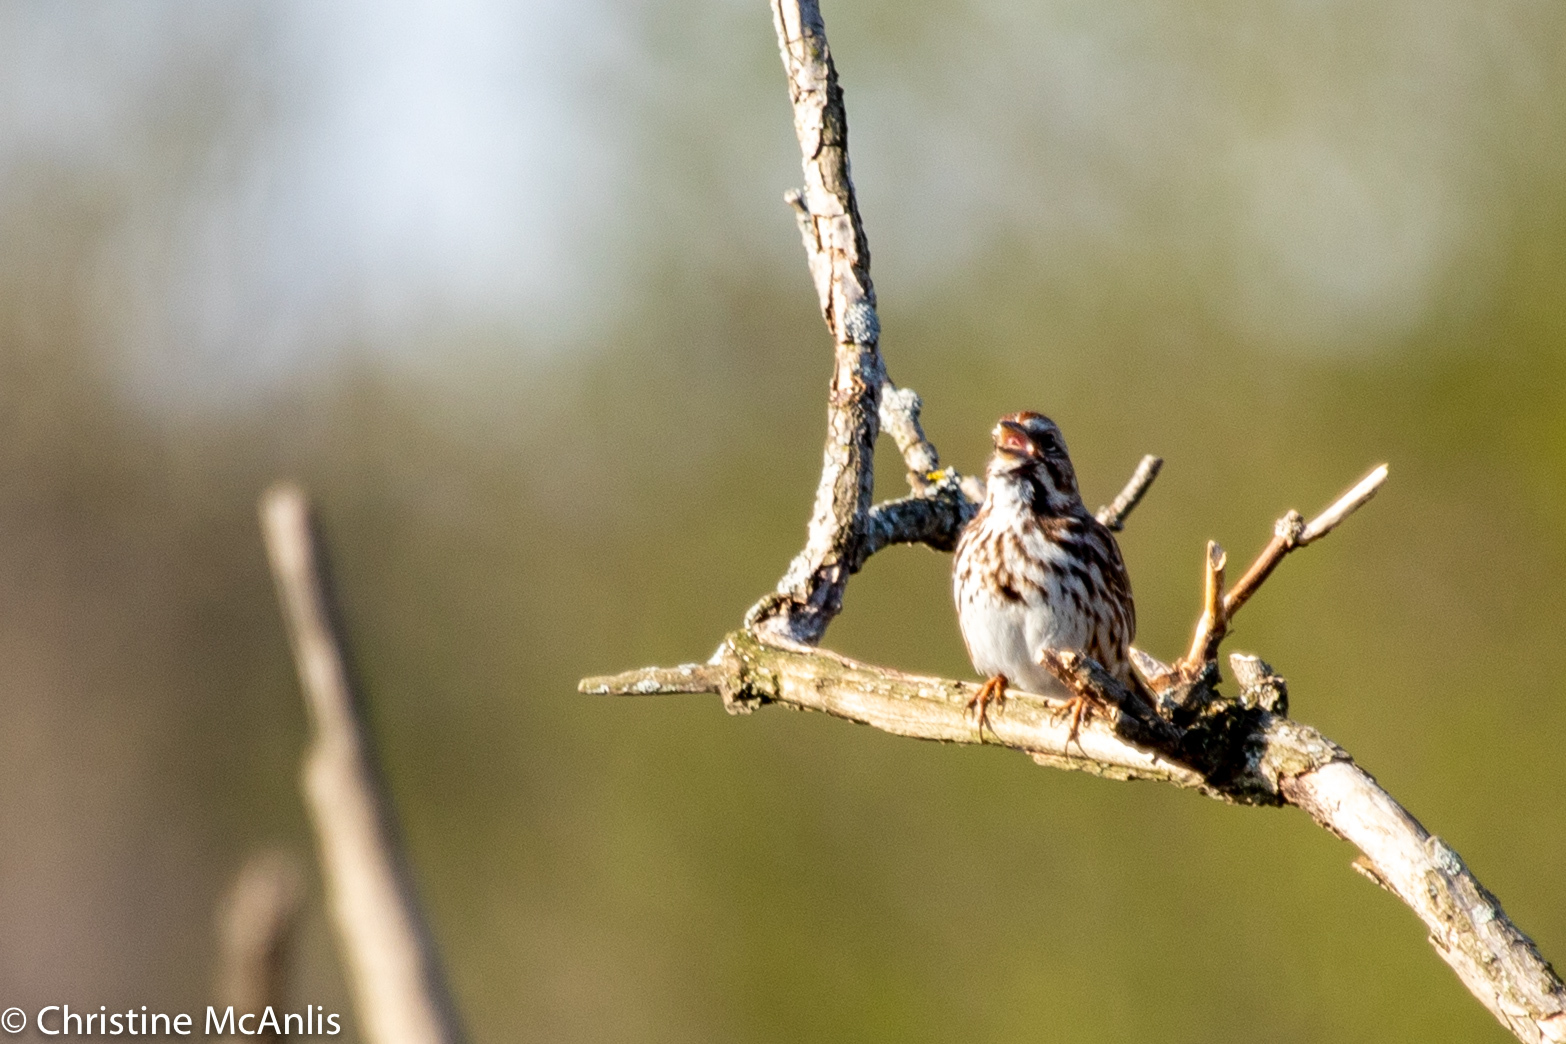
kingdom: Animalia
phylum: Chordata
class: Aves
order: Passeriformes
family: Passerellidae
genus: Melospiza
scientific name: Melospiza melodia
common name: Song sparrow
